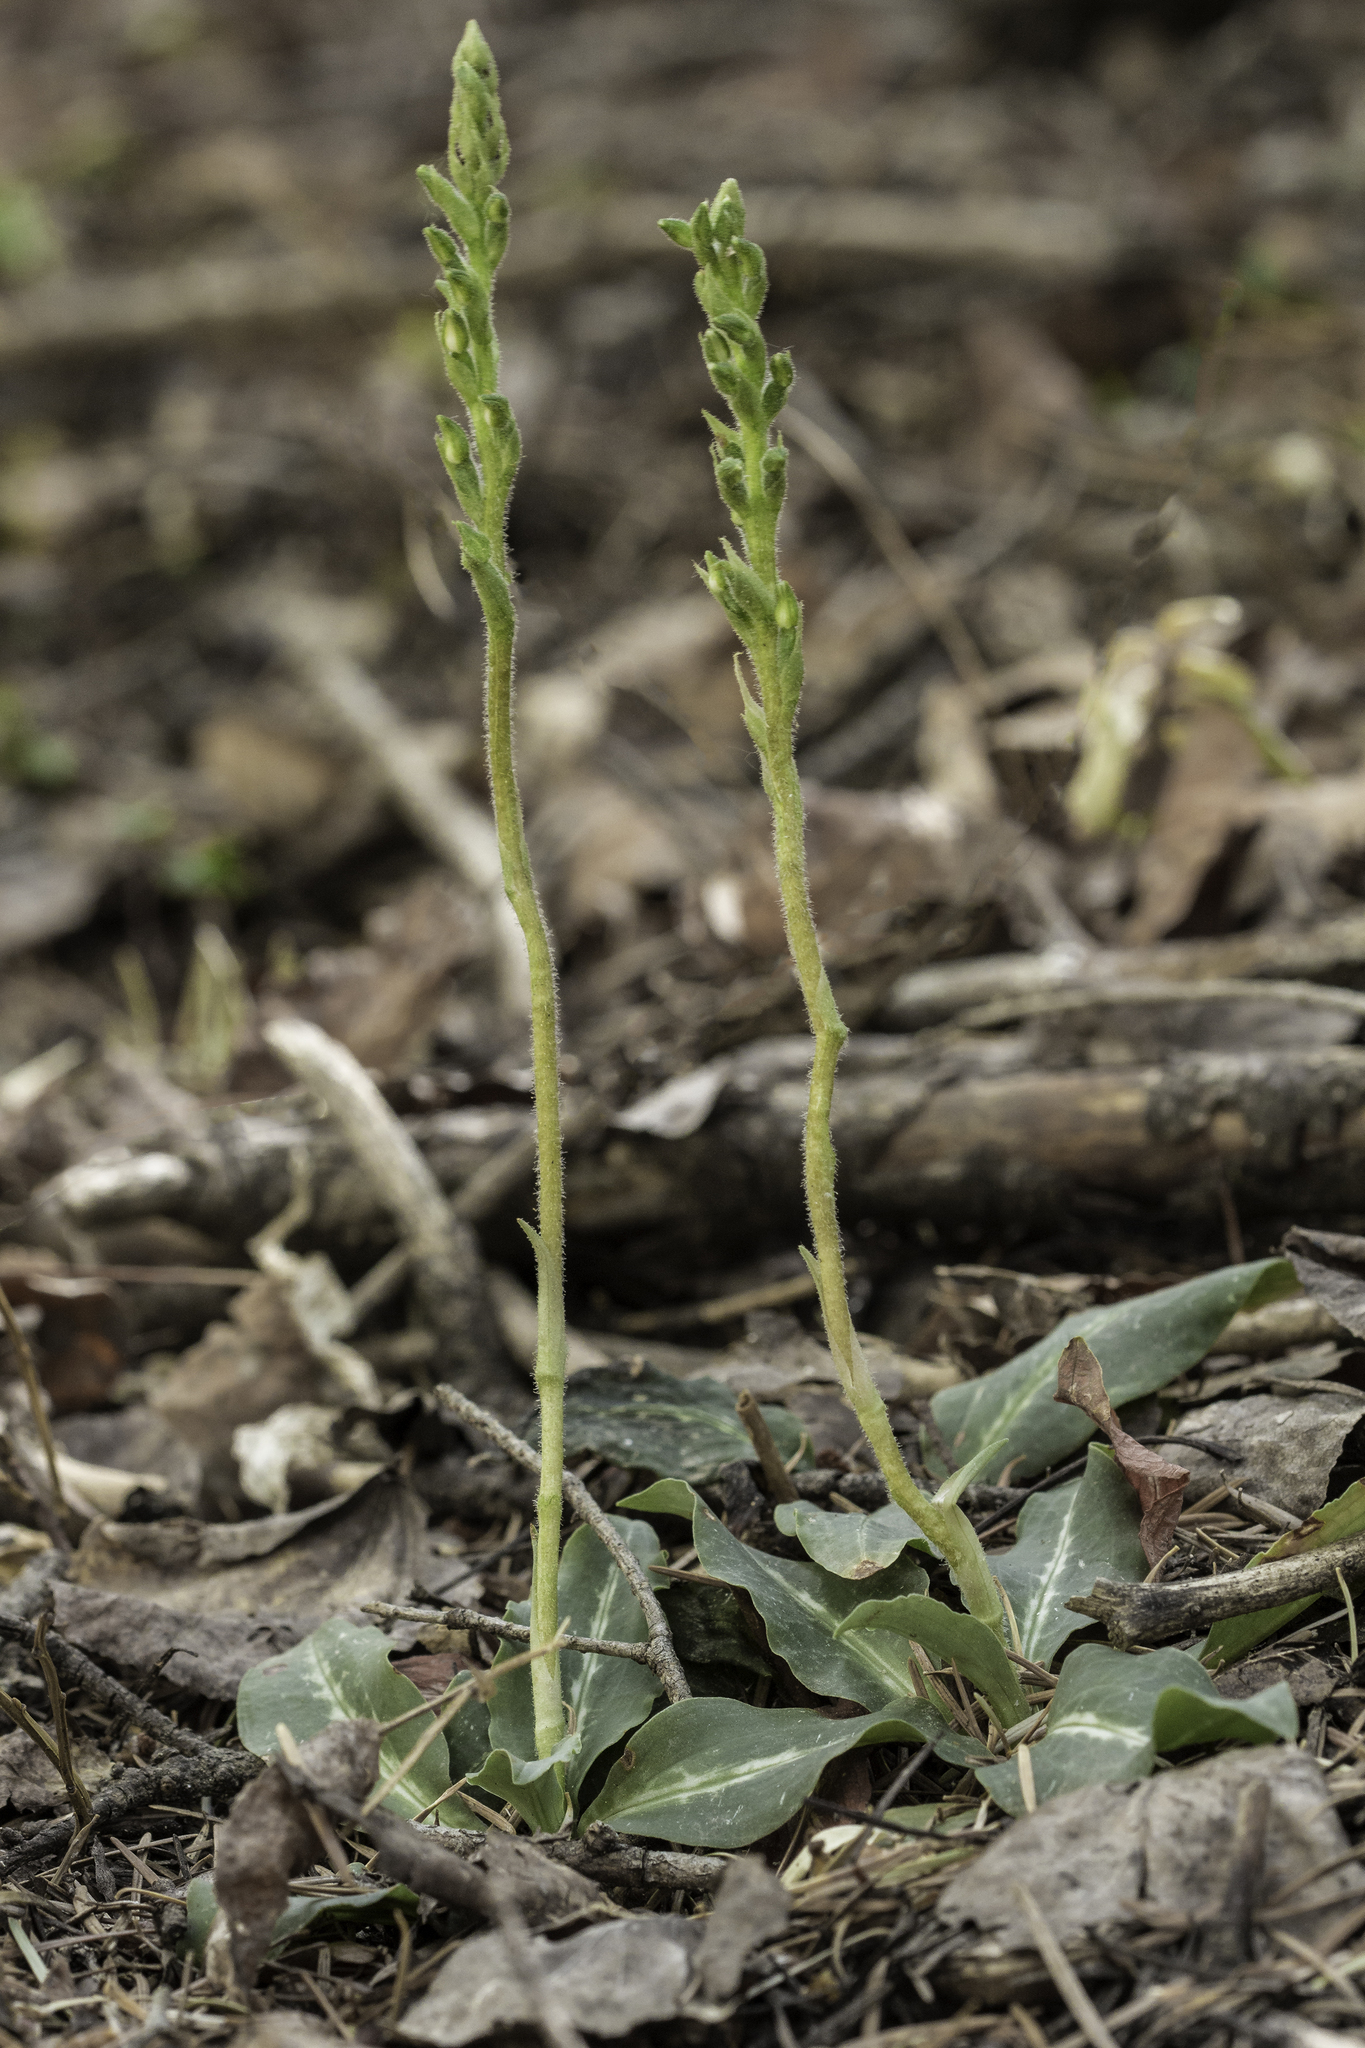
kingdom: Plantae
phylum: Tracheophyta
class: Liliopsida
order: Asparagales
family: Orchidaceae
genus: Goodyera
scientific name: Goodyera oblongifolia
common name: Giant rattlesnake-plantain
